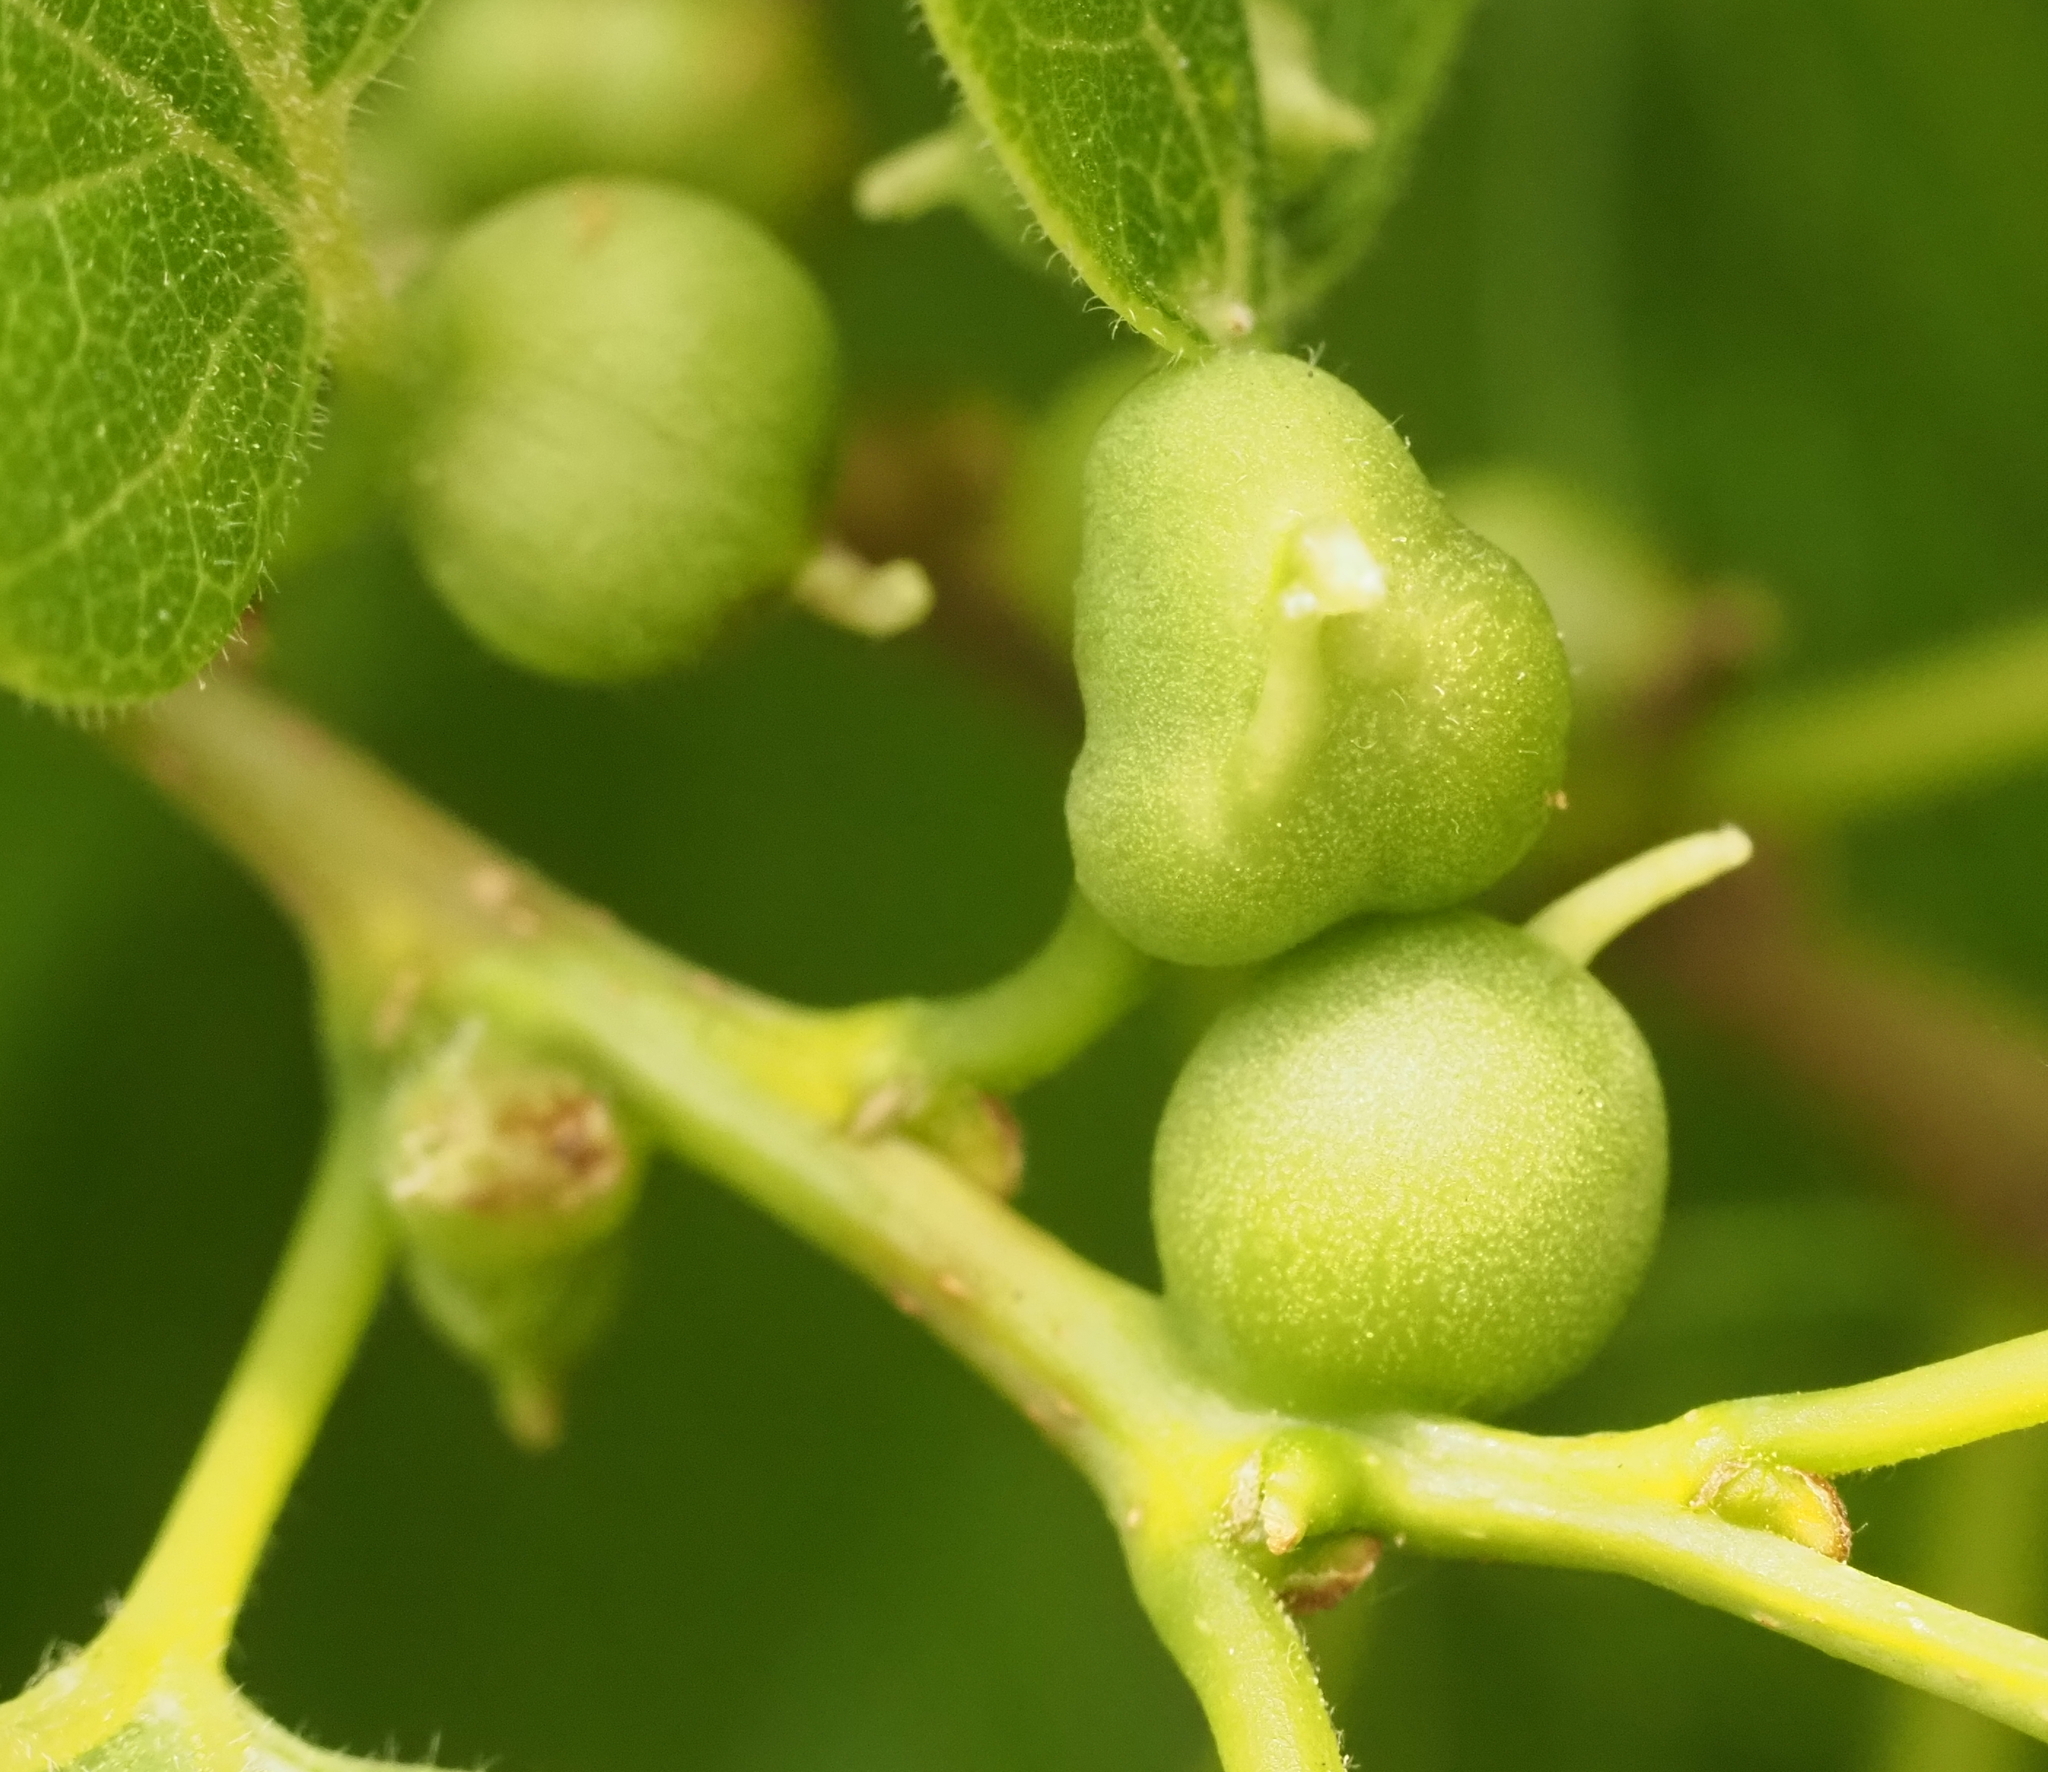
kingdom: Animalia
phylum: Arthropoda
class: Insecta
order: Diptera
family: Cecidomyiidae
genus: Celticecis
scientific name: Celticecis connata
